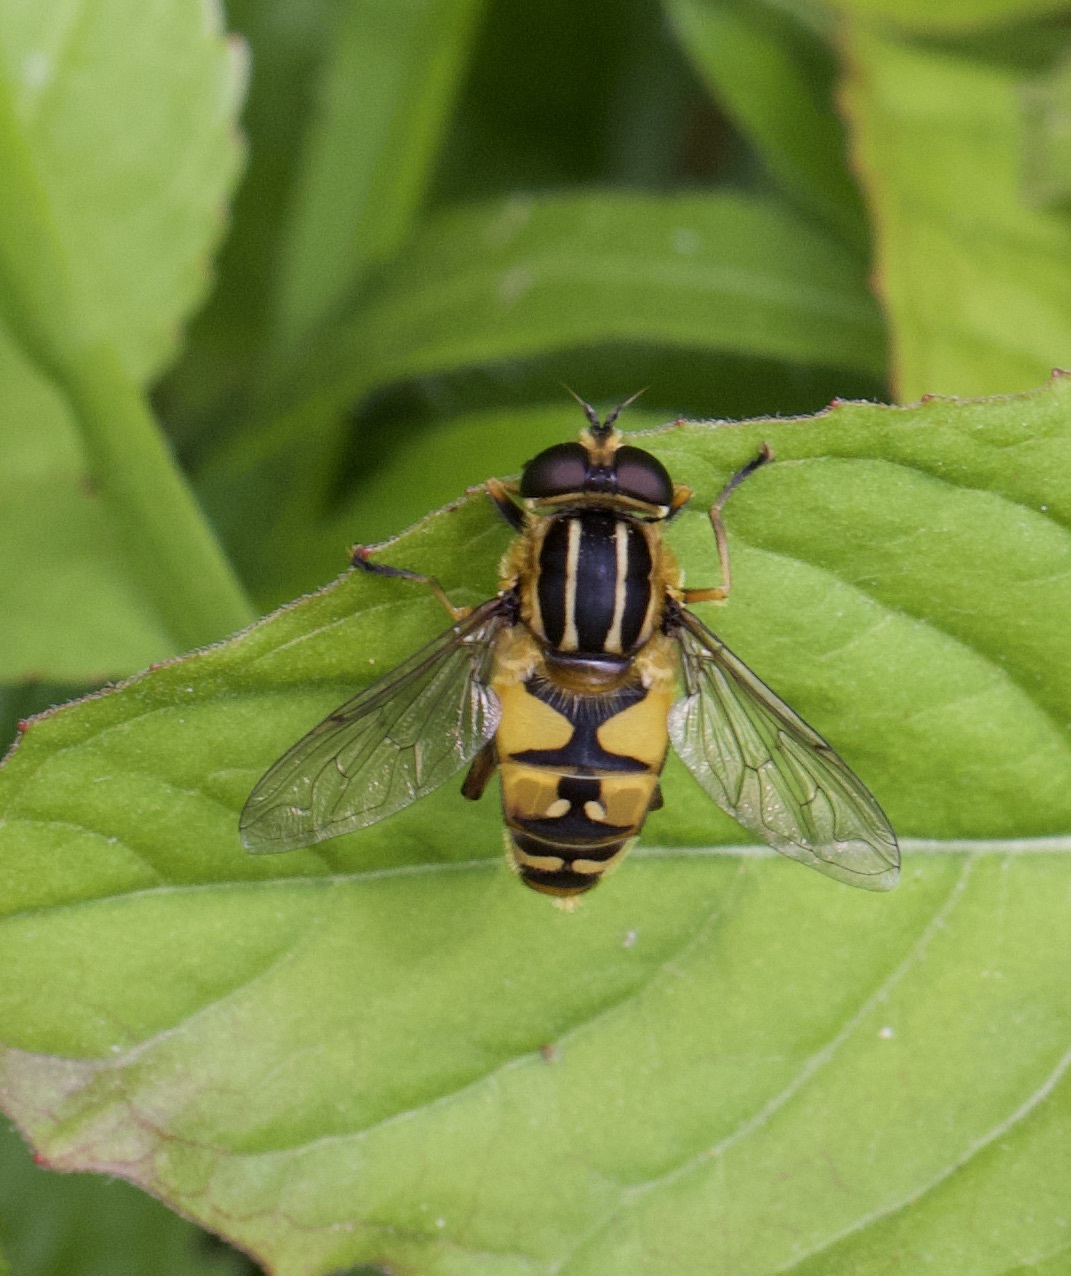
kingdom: Animalia
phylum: Arthropoda
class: Insecta
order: Diptera
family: Syrphidae
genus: Helophilus
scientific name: Helophilus pendulus
